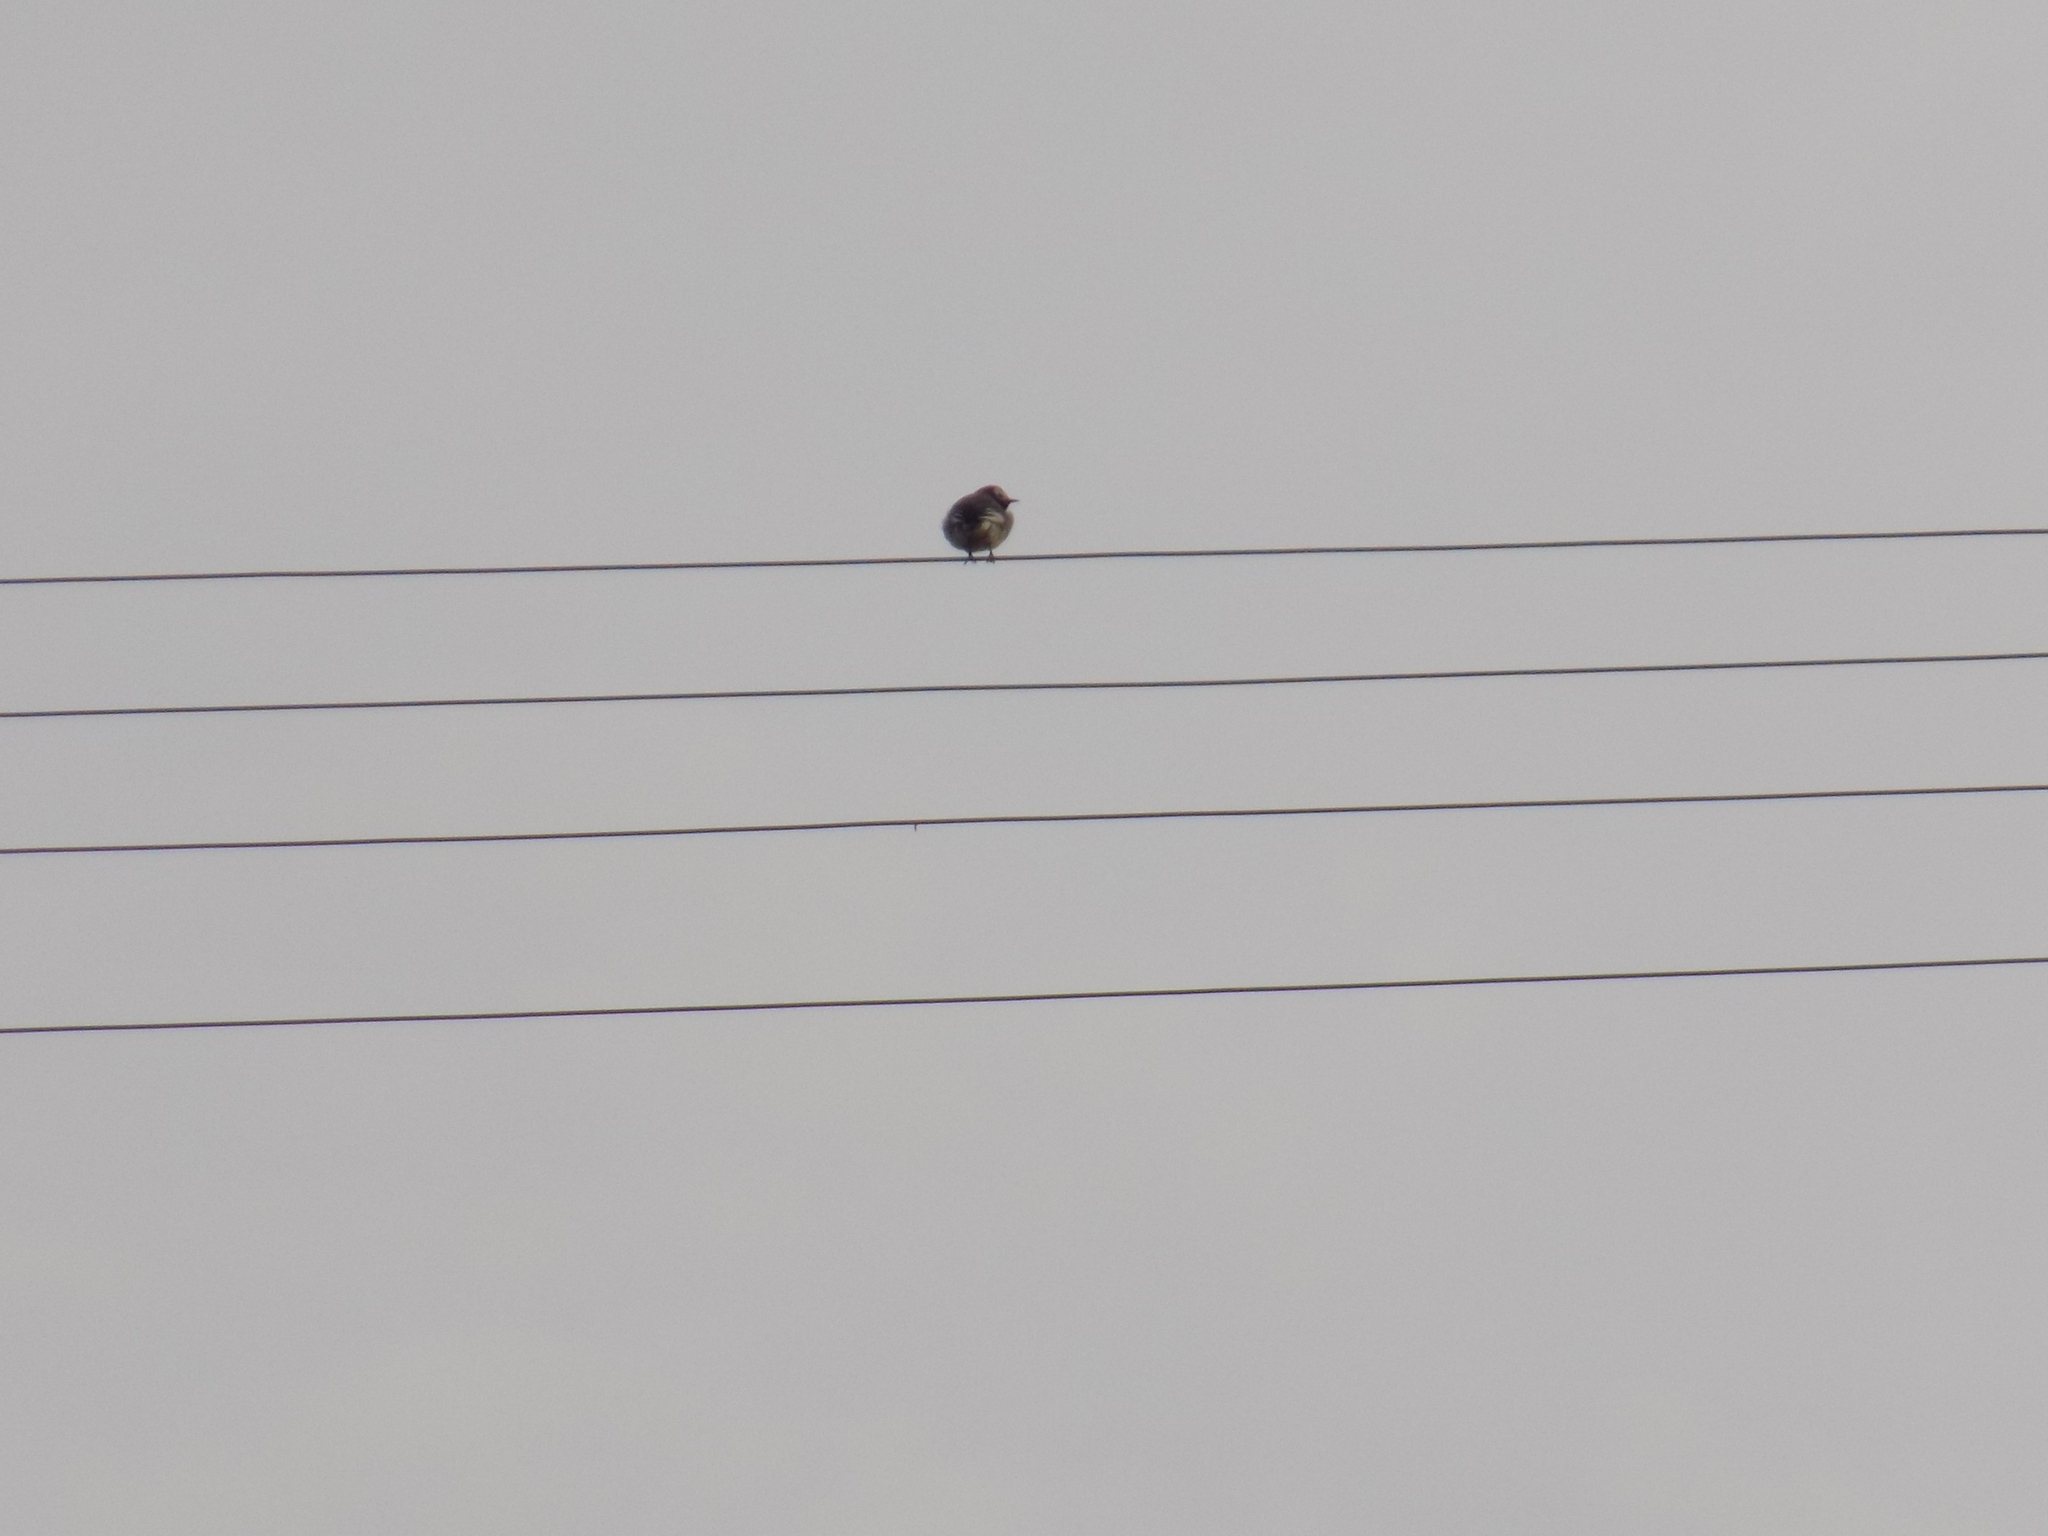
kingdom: Animalia
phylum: Chordata
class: Aves
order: Passeriformes
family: Motacillidae
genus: Motacilla
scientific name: Motacilla alba
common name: White wagtail
